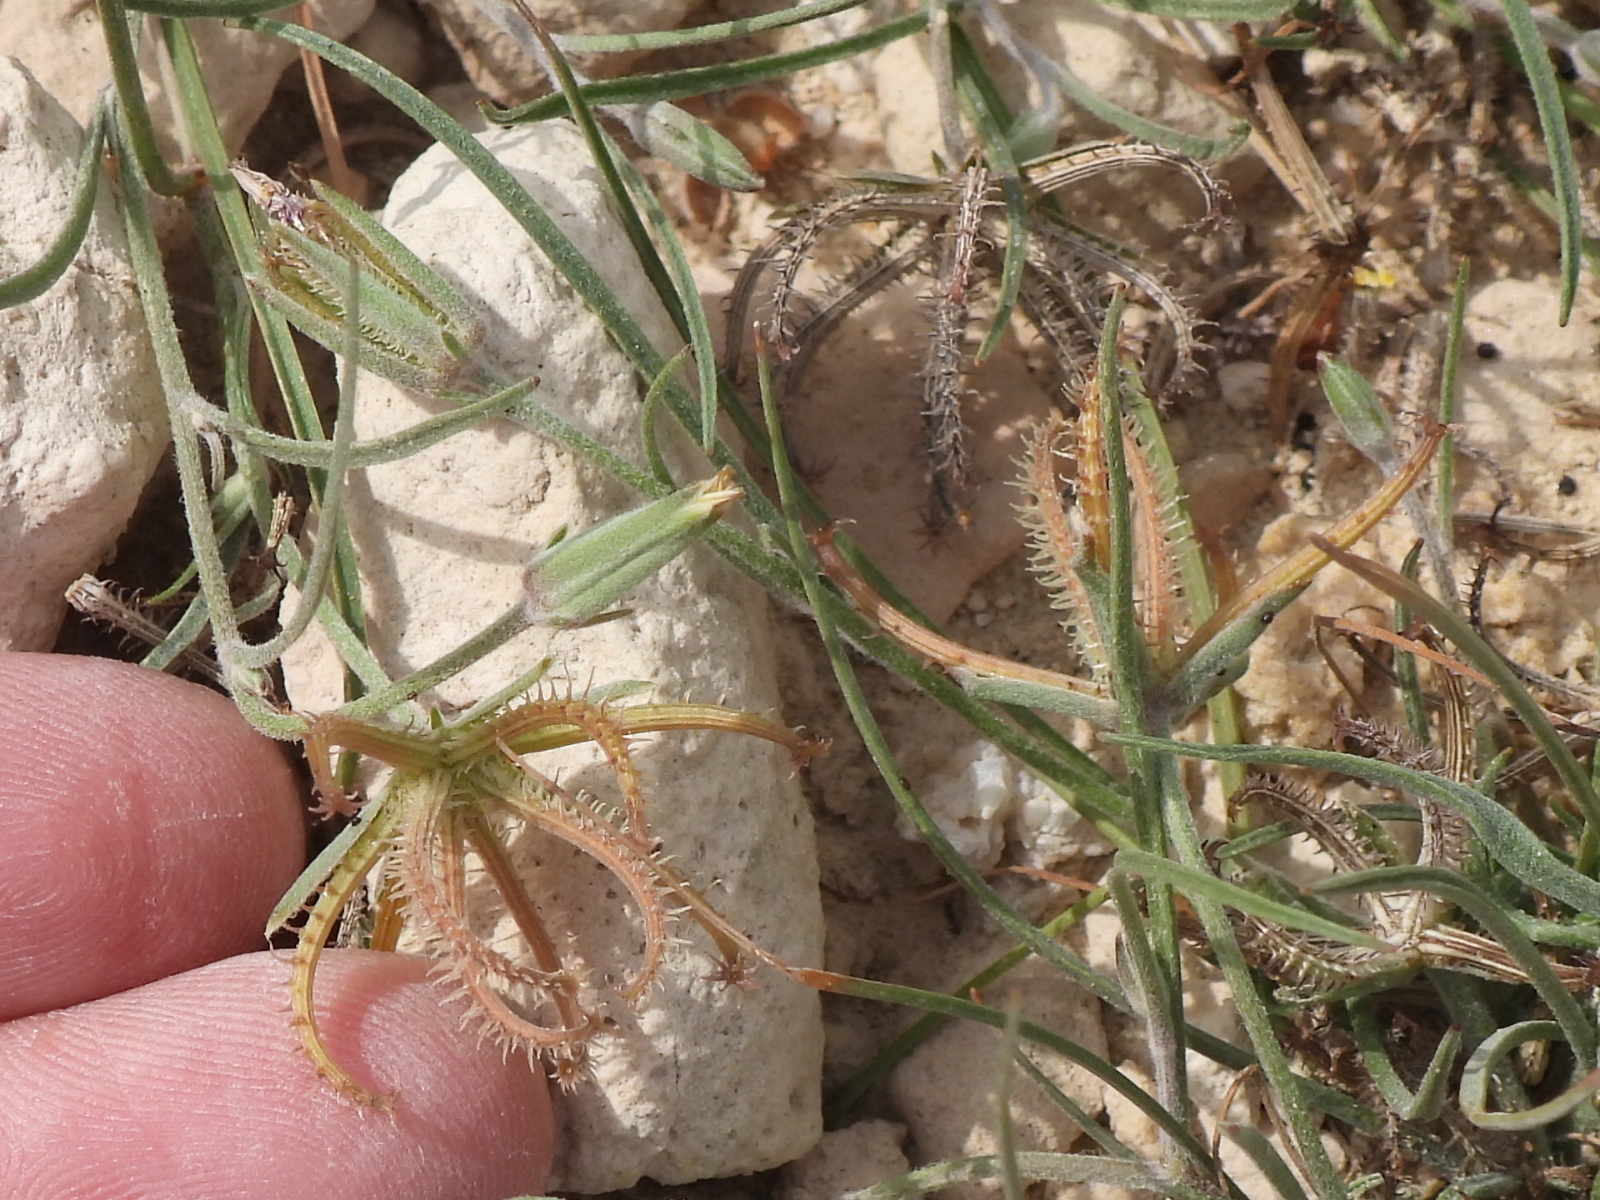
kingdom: Plantae
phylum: Tracheophyta
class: Magnoliopsida
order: Asterales
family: Asteraceae
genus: Koelpinia
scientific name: Koelpinia linearis
